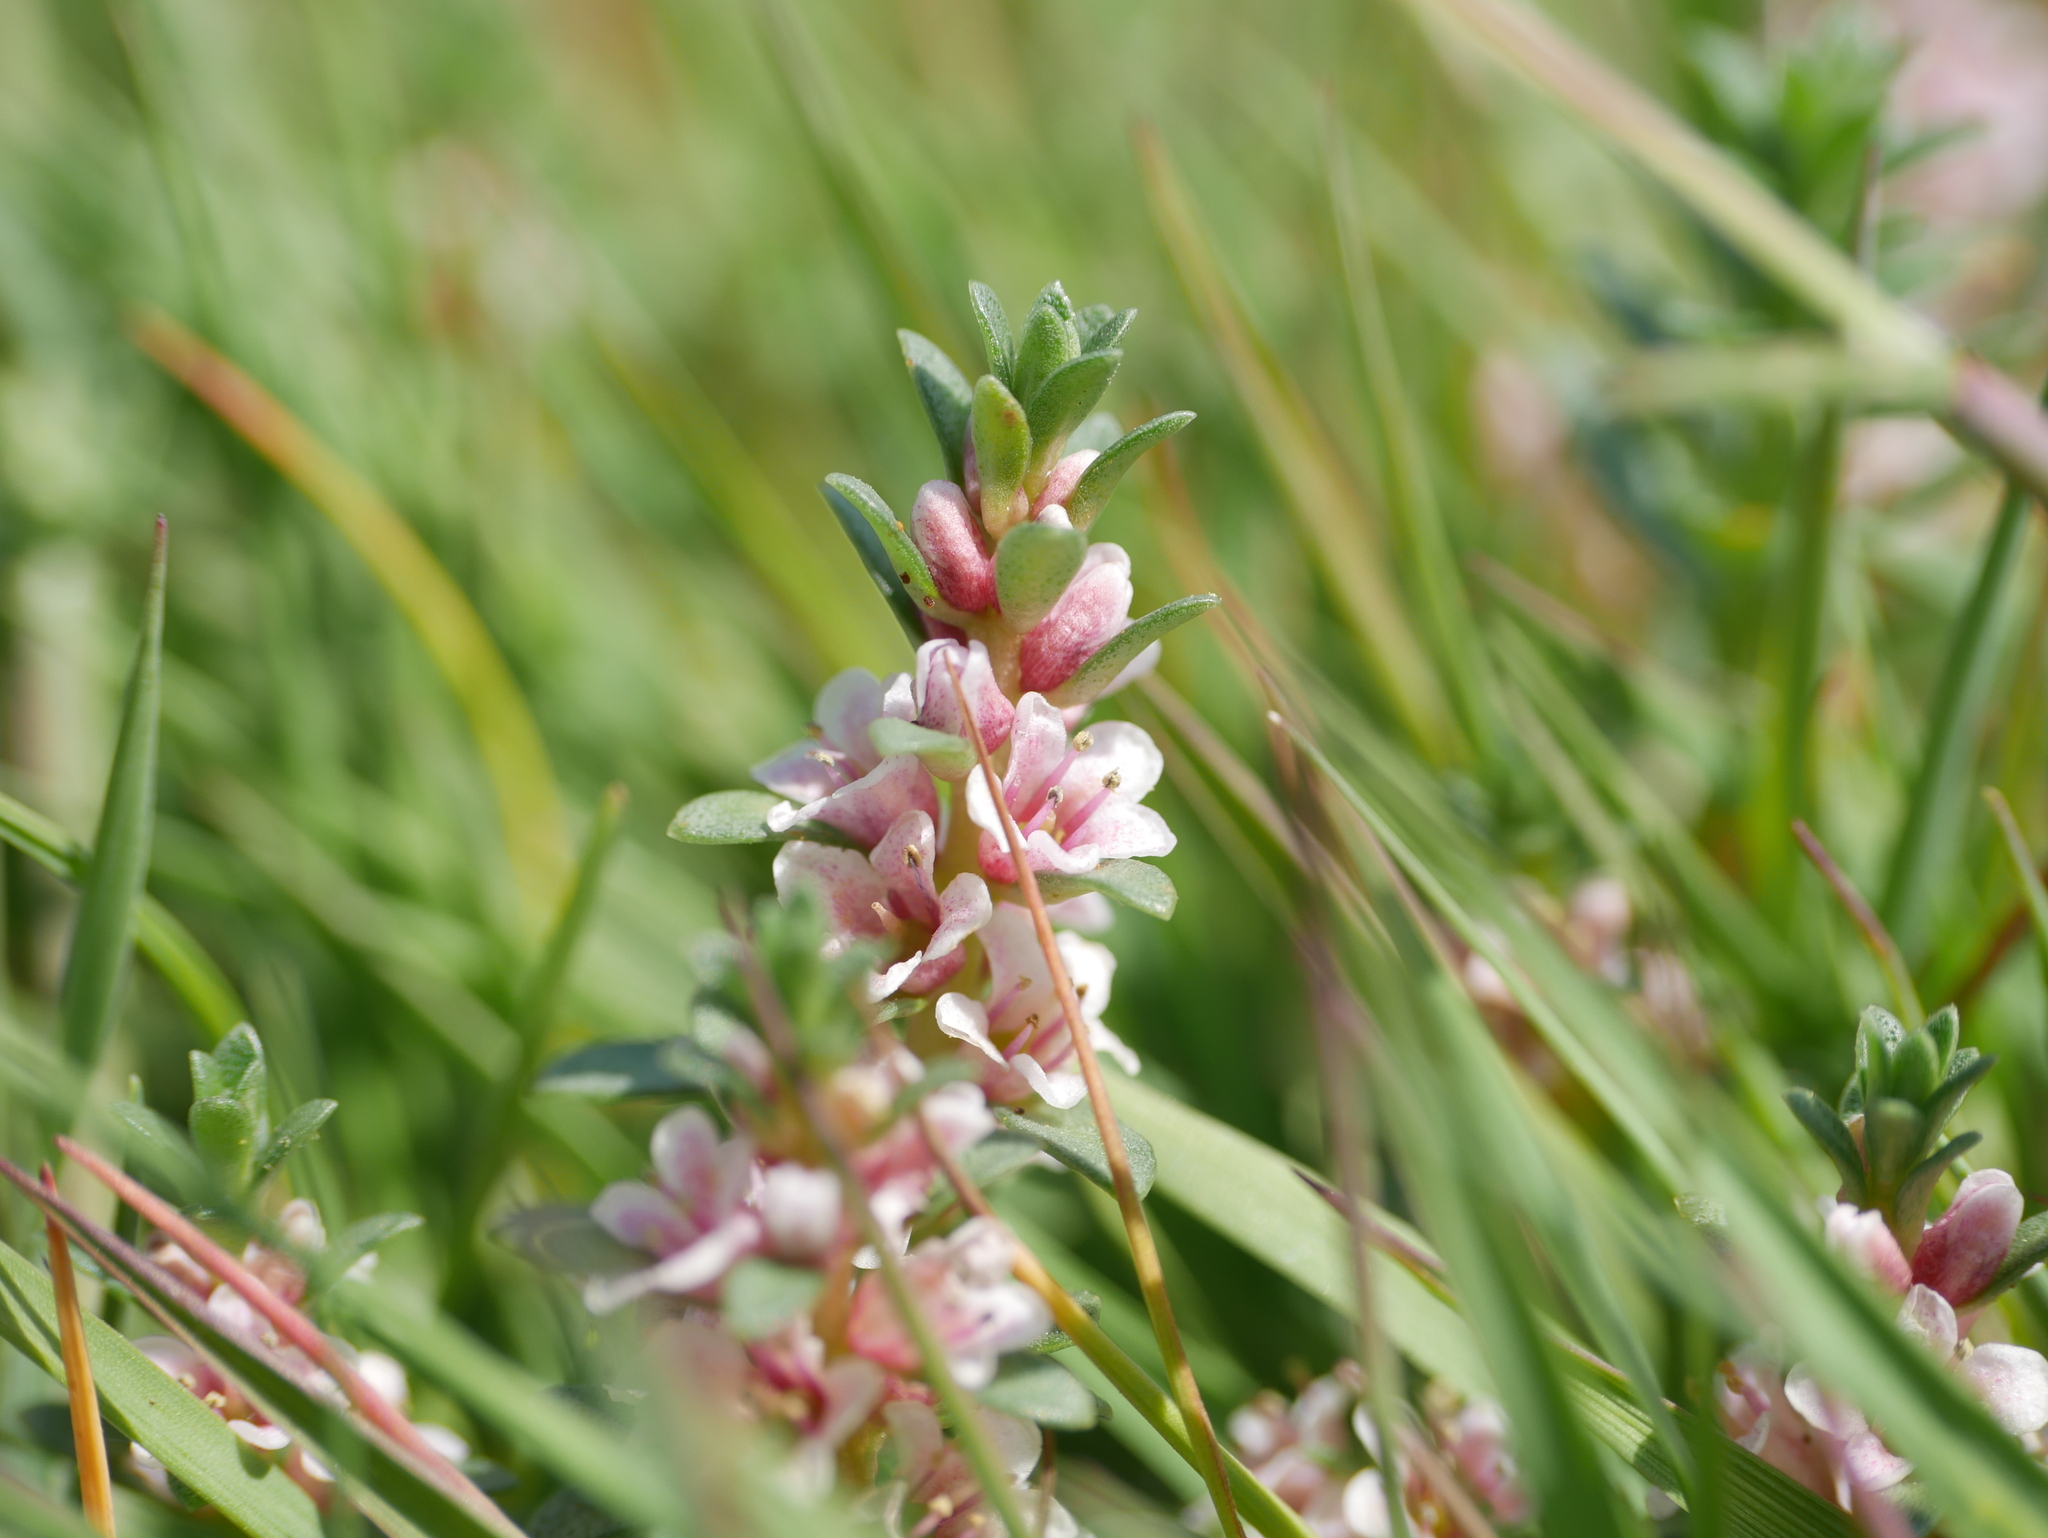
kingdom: Plantae
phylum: Tracheophyta
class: Magnoliopsida
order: Ericales
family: Primulaceae
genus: Lysimachia
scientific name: Lysimachia maritima
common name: Sea milkwort
